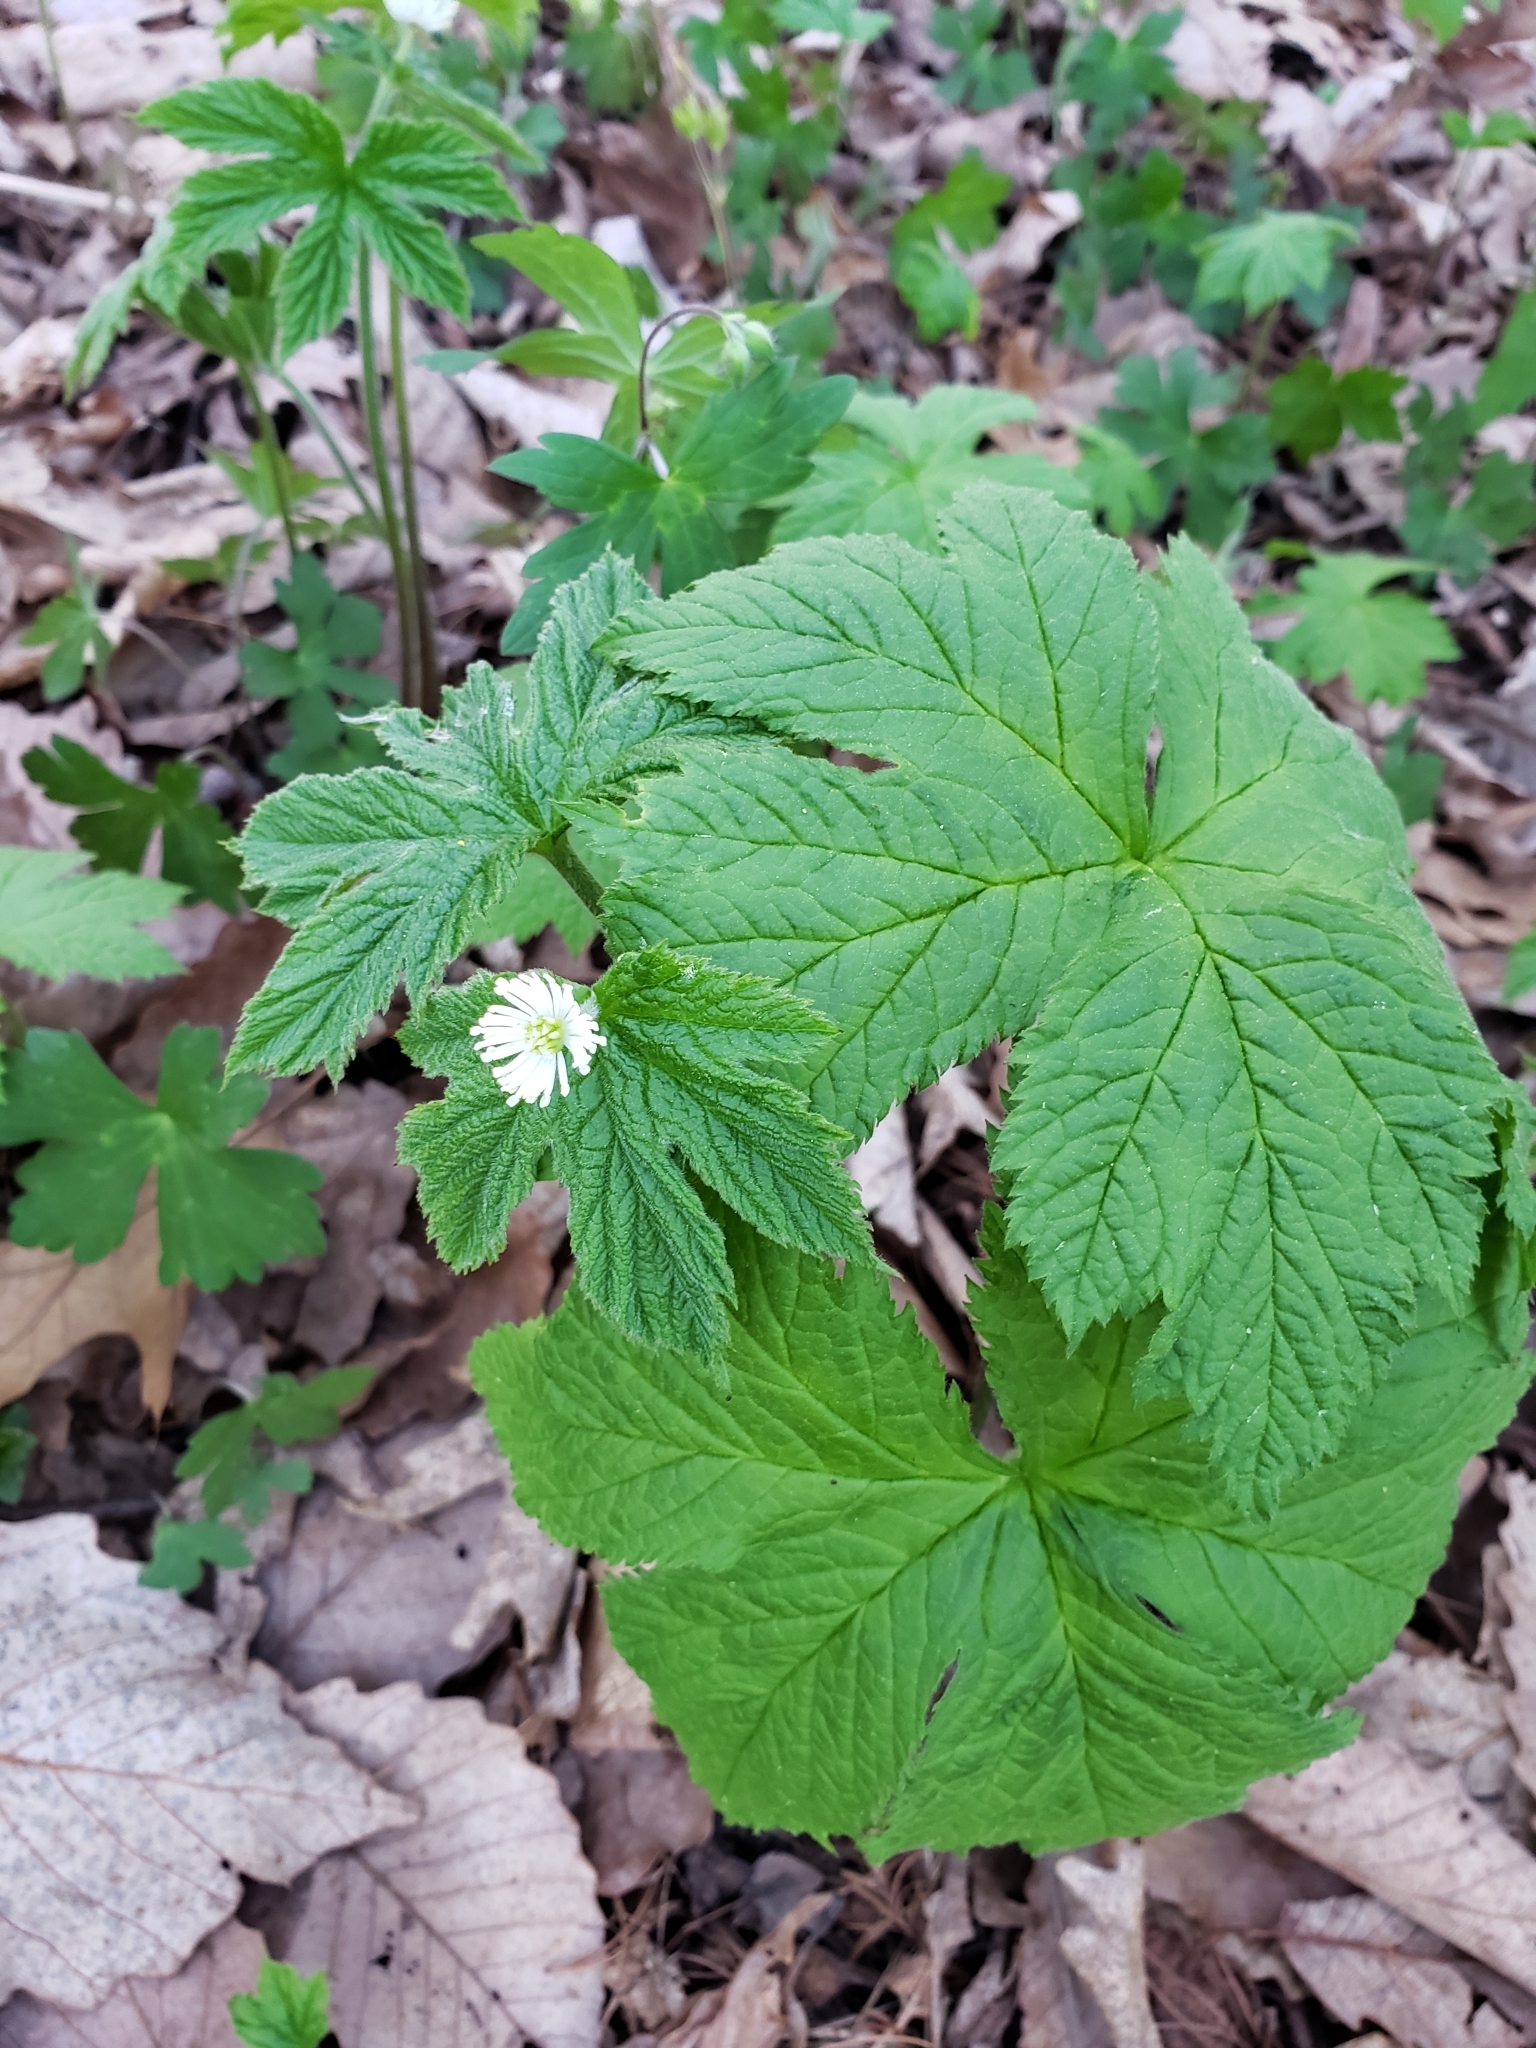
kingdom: Plantae
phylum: Tracheophyta
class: Magnoliopsida
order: Ranunculales
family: Ranunculaceae
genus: Hydrastis
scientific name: Hydrastis canadensis
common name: Goldenseal
